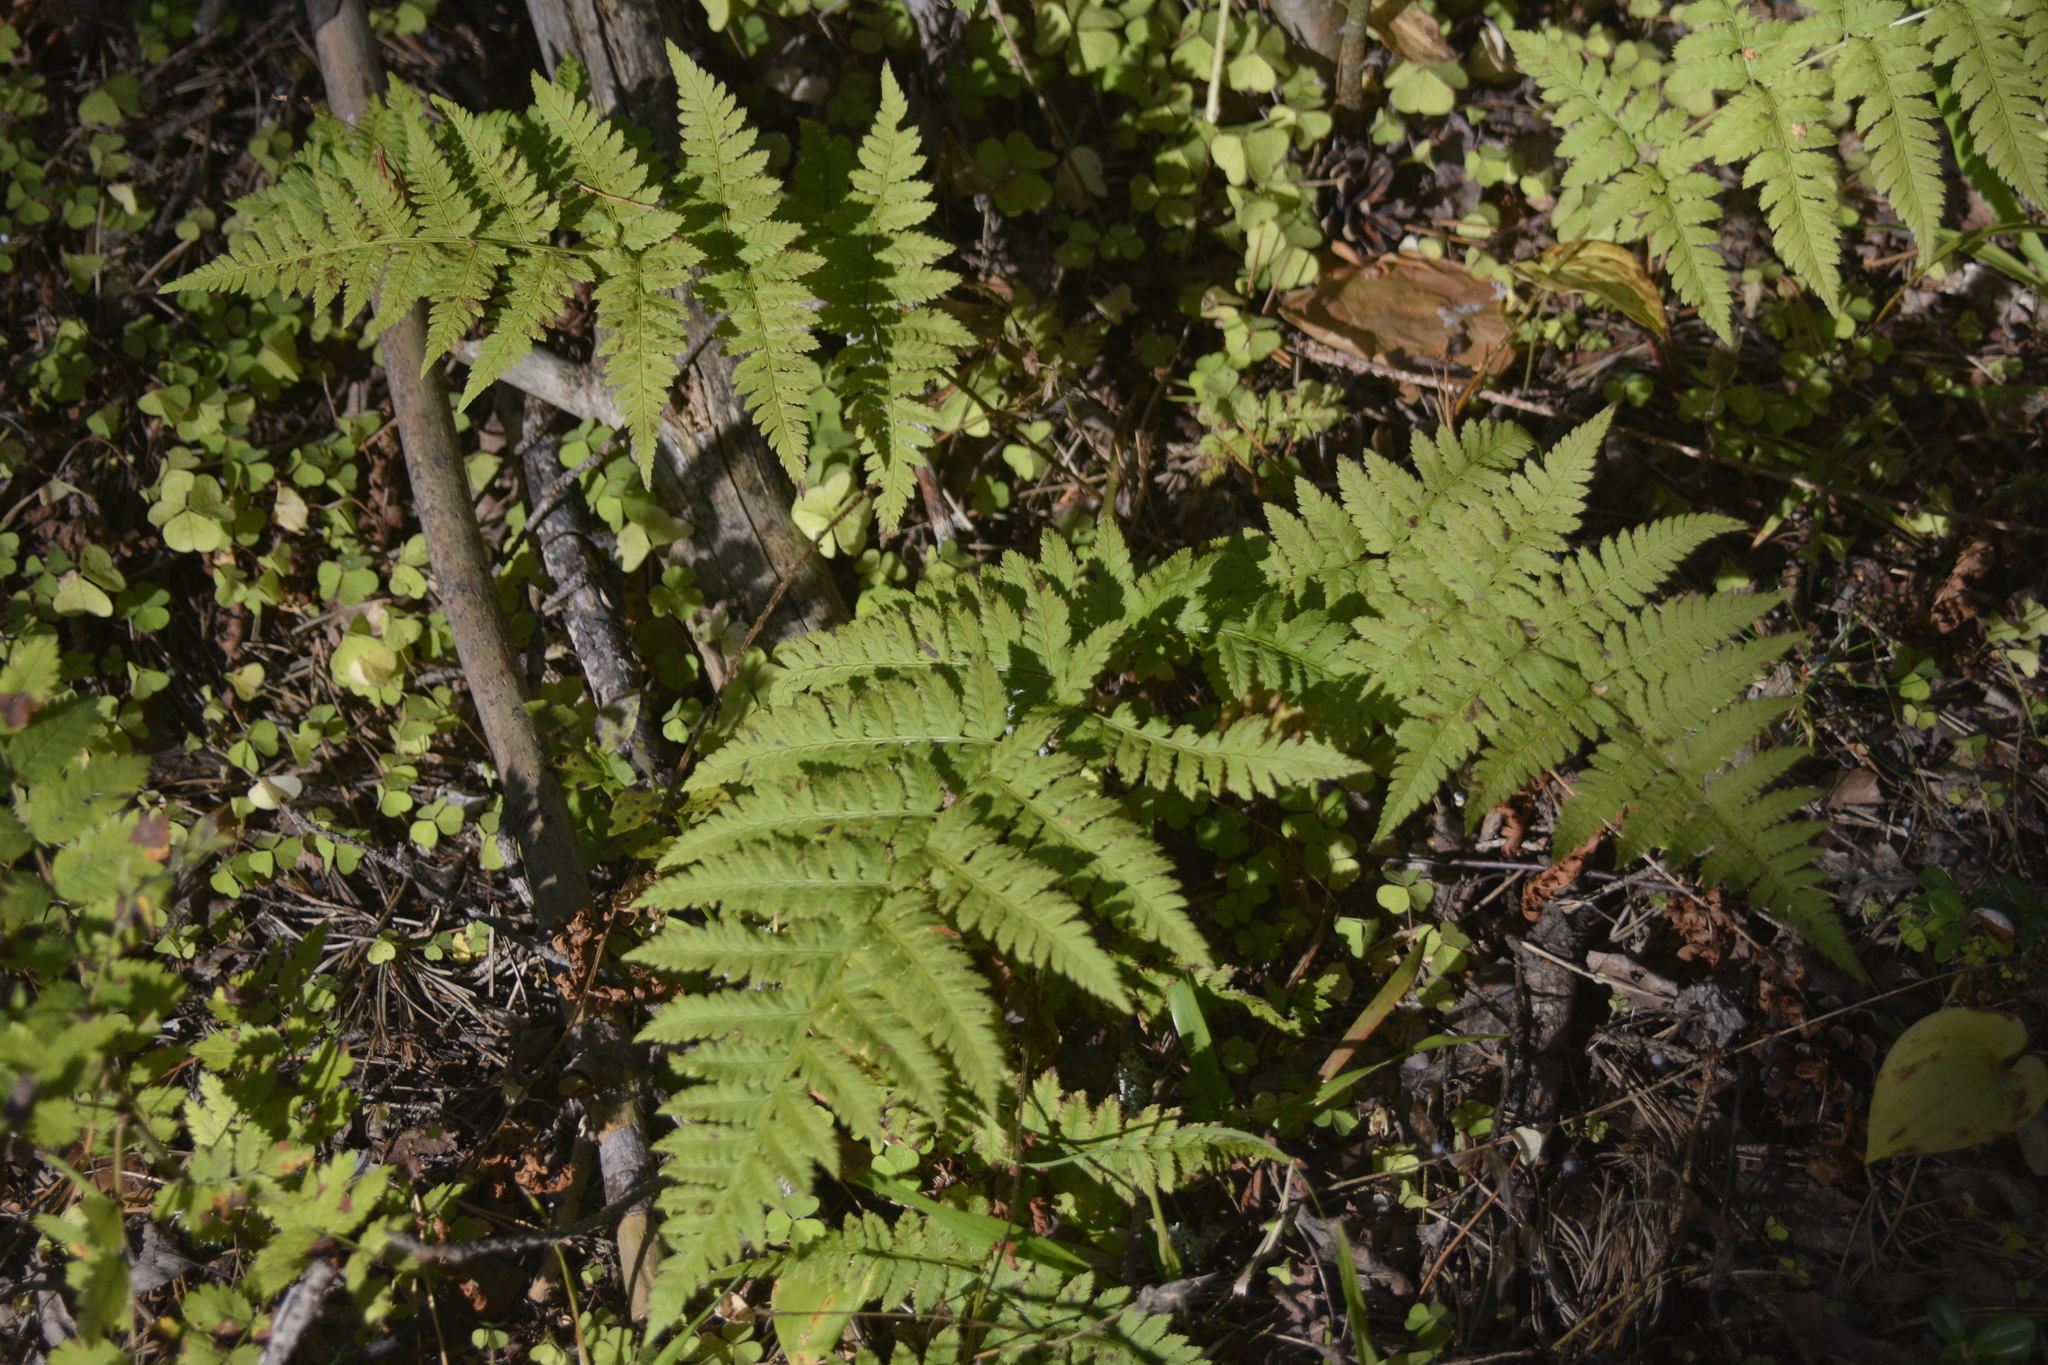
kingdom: Plantae
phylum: Tracheophyta
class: Polypodiopsida
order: Polypodiales
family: Dryopteridaceae
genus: Dryopteris
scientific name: Dryopteris carthusiana
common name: Narrow buckler-fern
